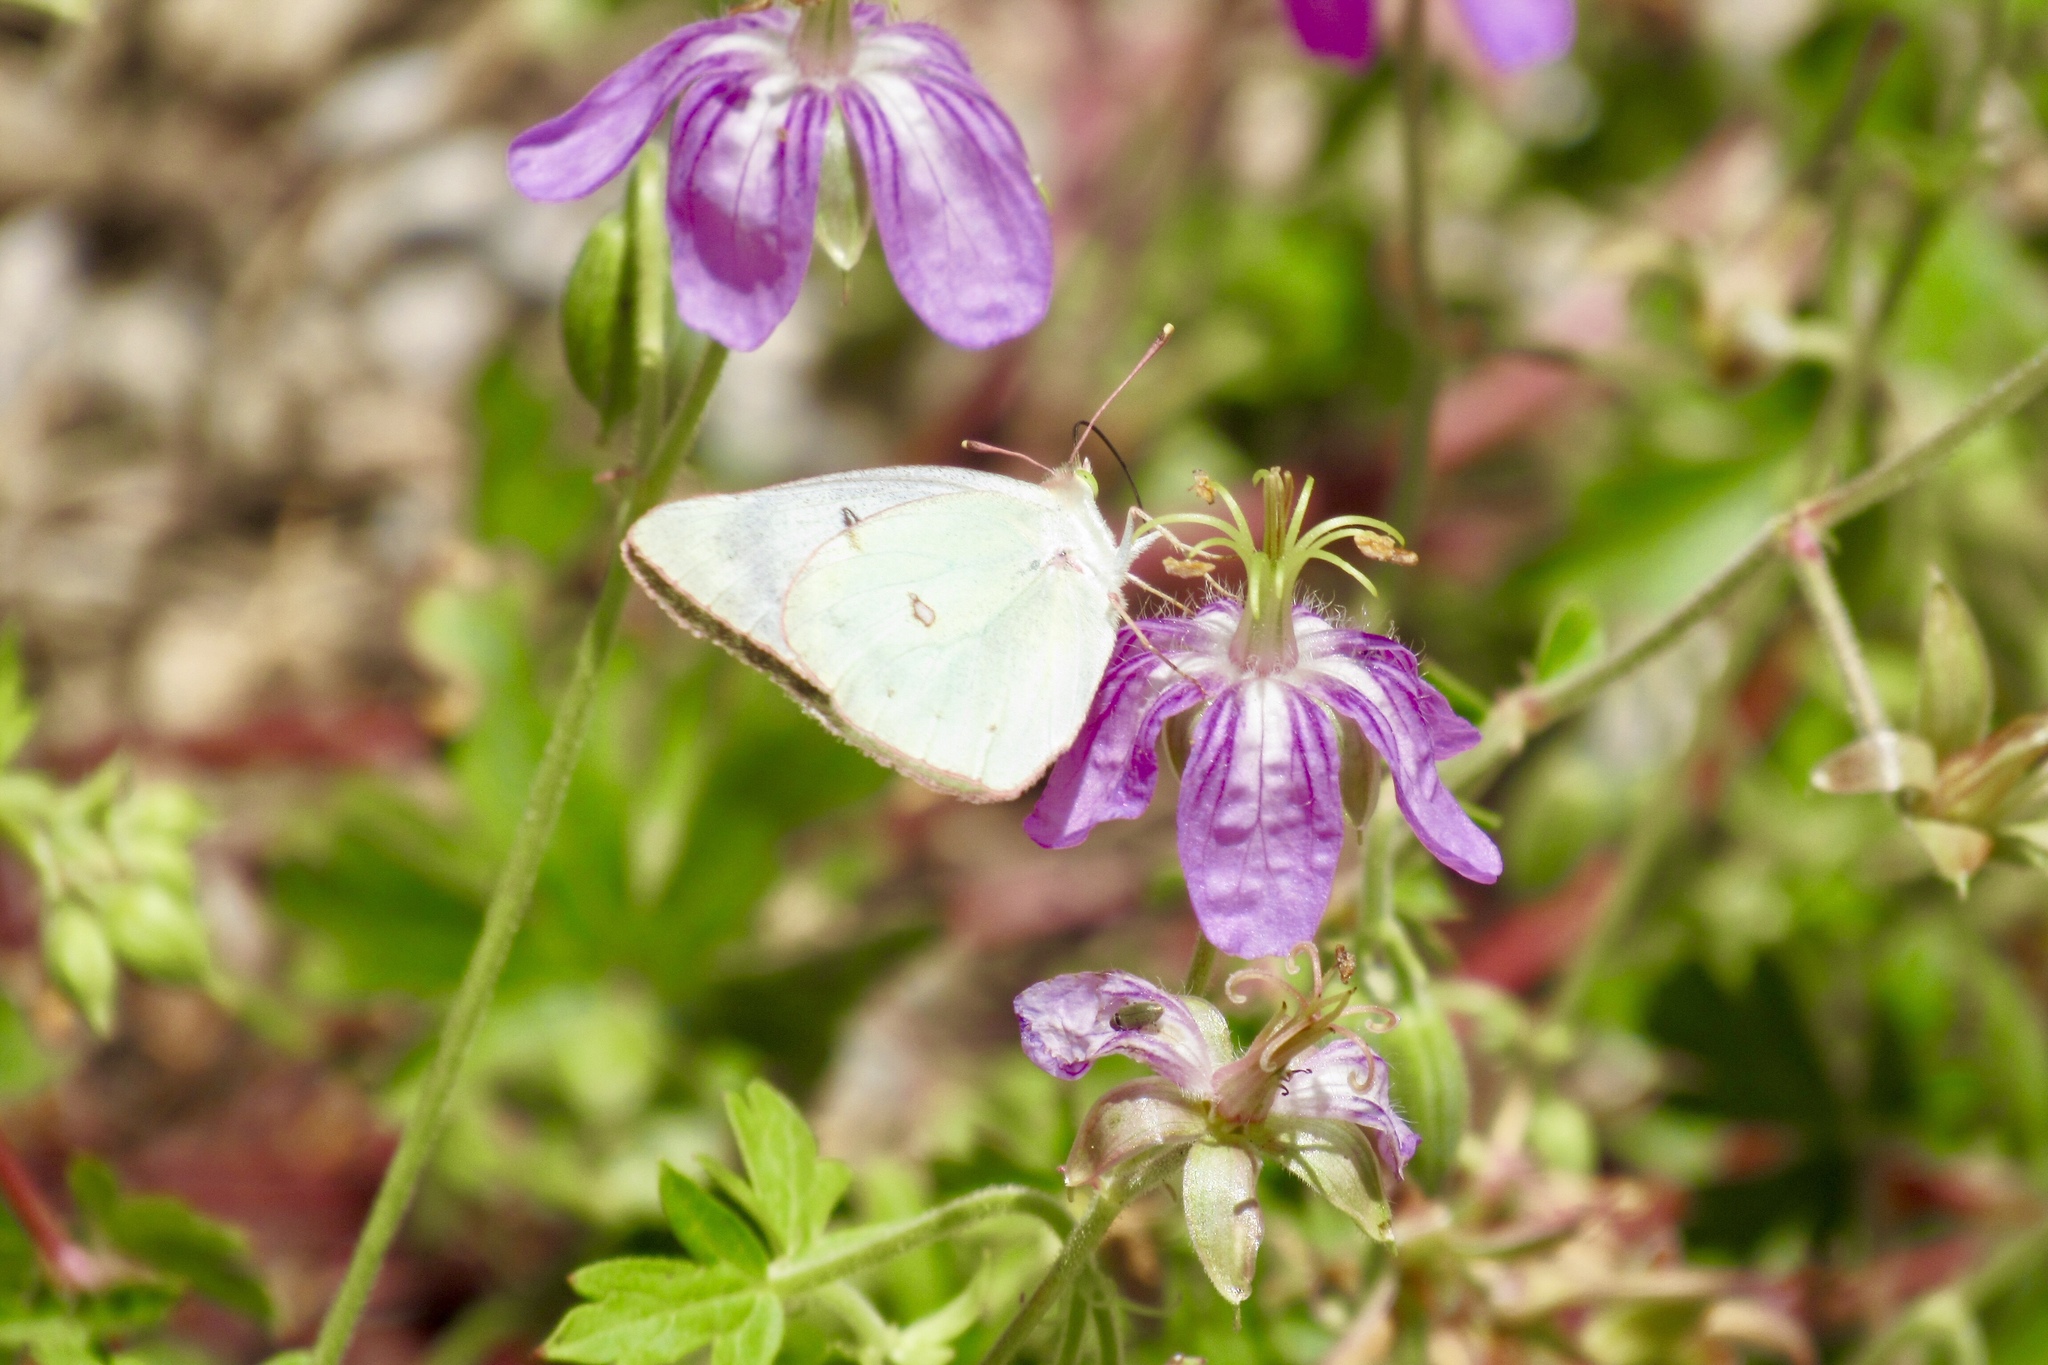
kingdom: Animalia
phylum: Arthropoda
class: Insecta
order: Lepidoptera
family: Pieridae
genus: Colias
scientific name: Colias eurytheme
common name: Alfalfa butterfly
